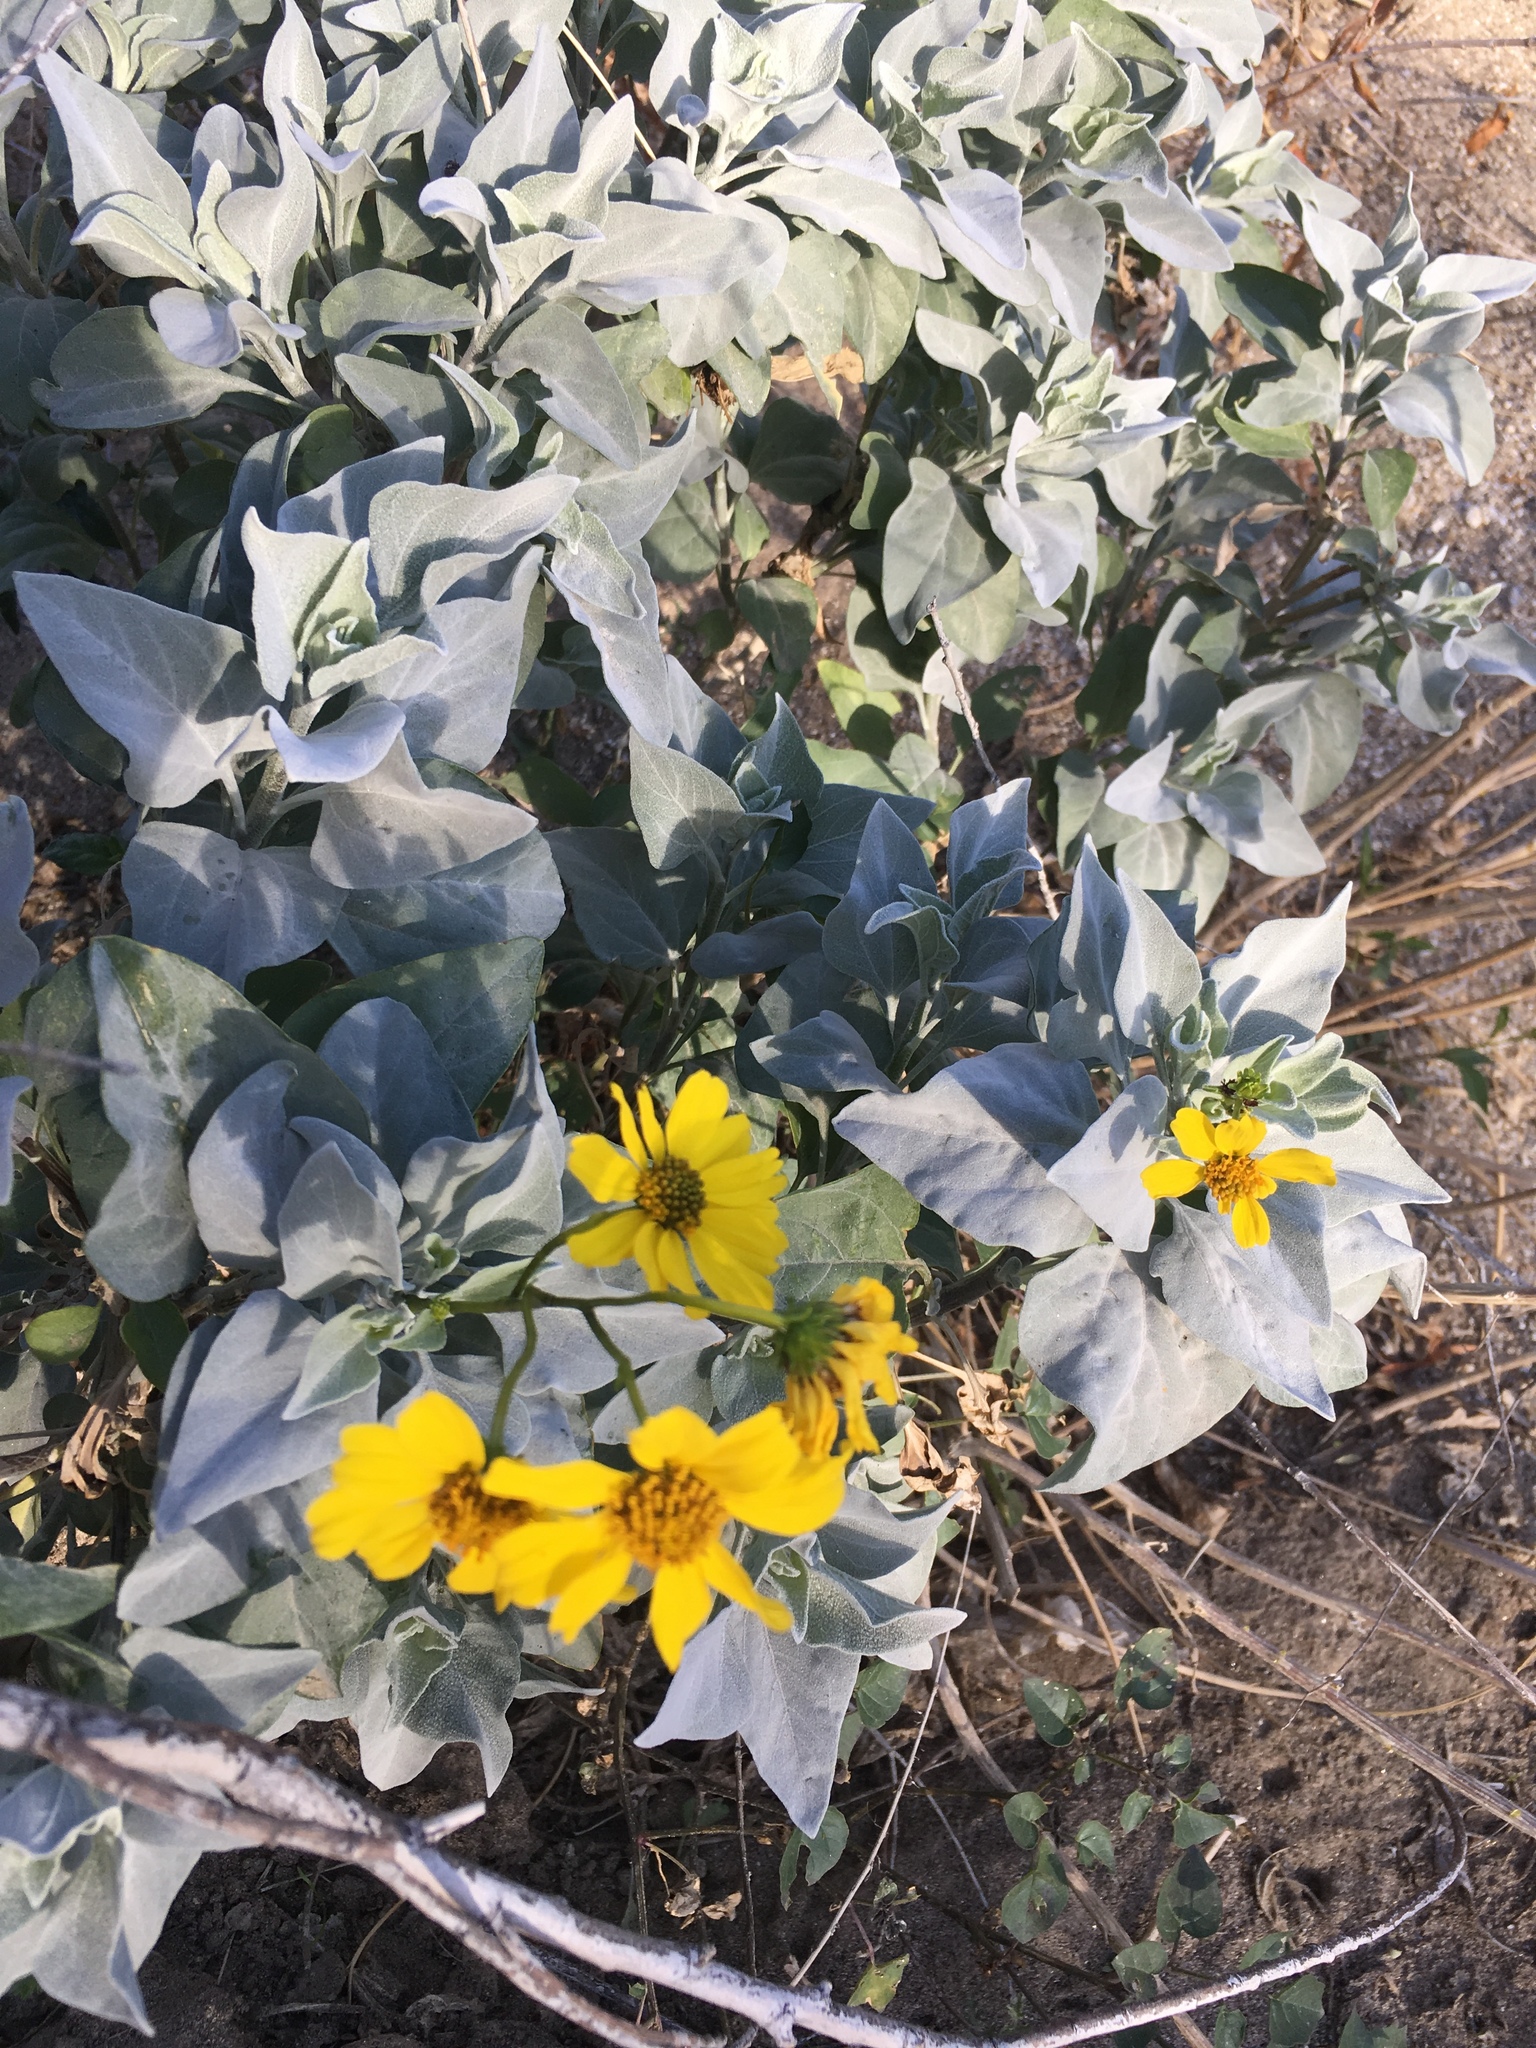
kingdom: Plantae
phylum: Tracheophyta
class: Magnoliopsida
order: Asterales
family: Asteraceae
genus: Encelia
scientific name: Encelia farinosa
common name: Brittlebush
